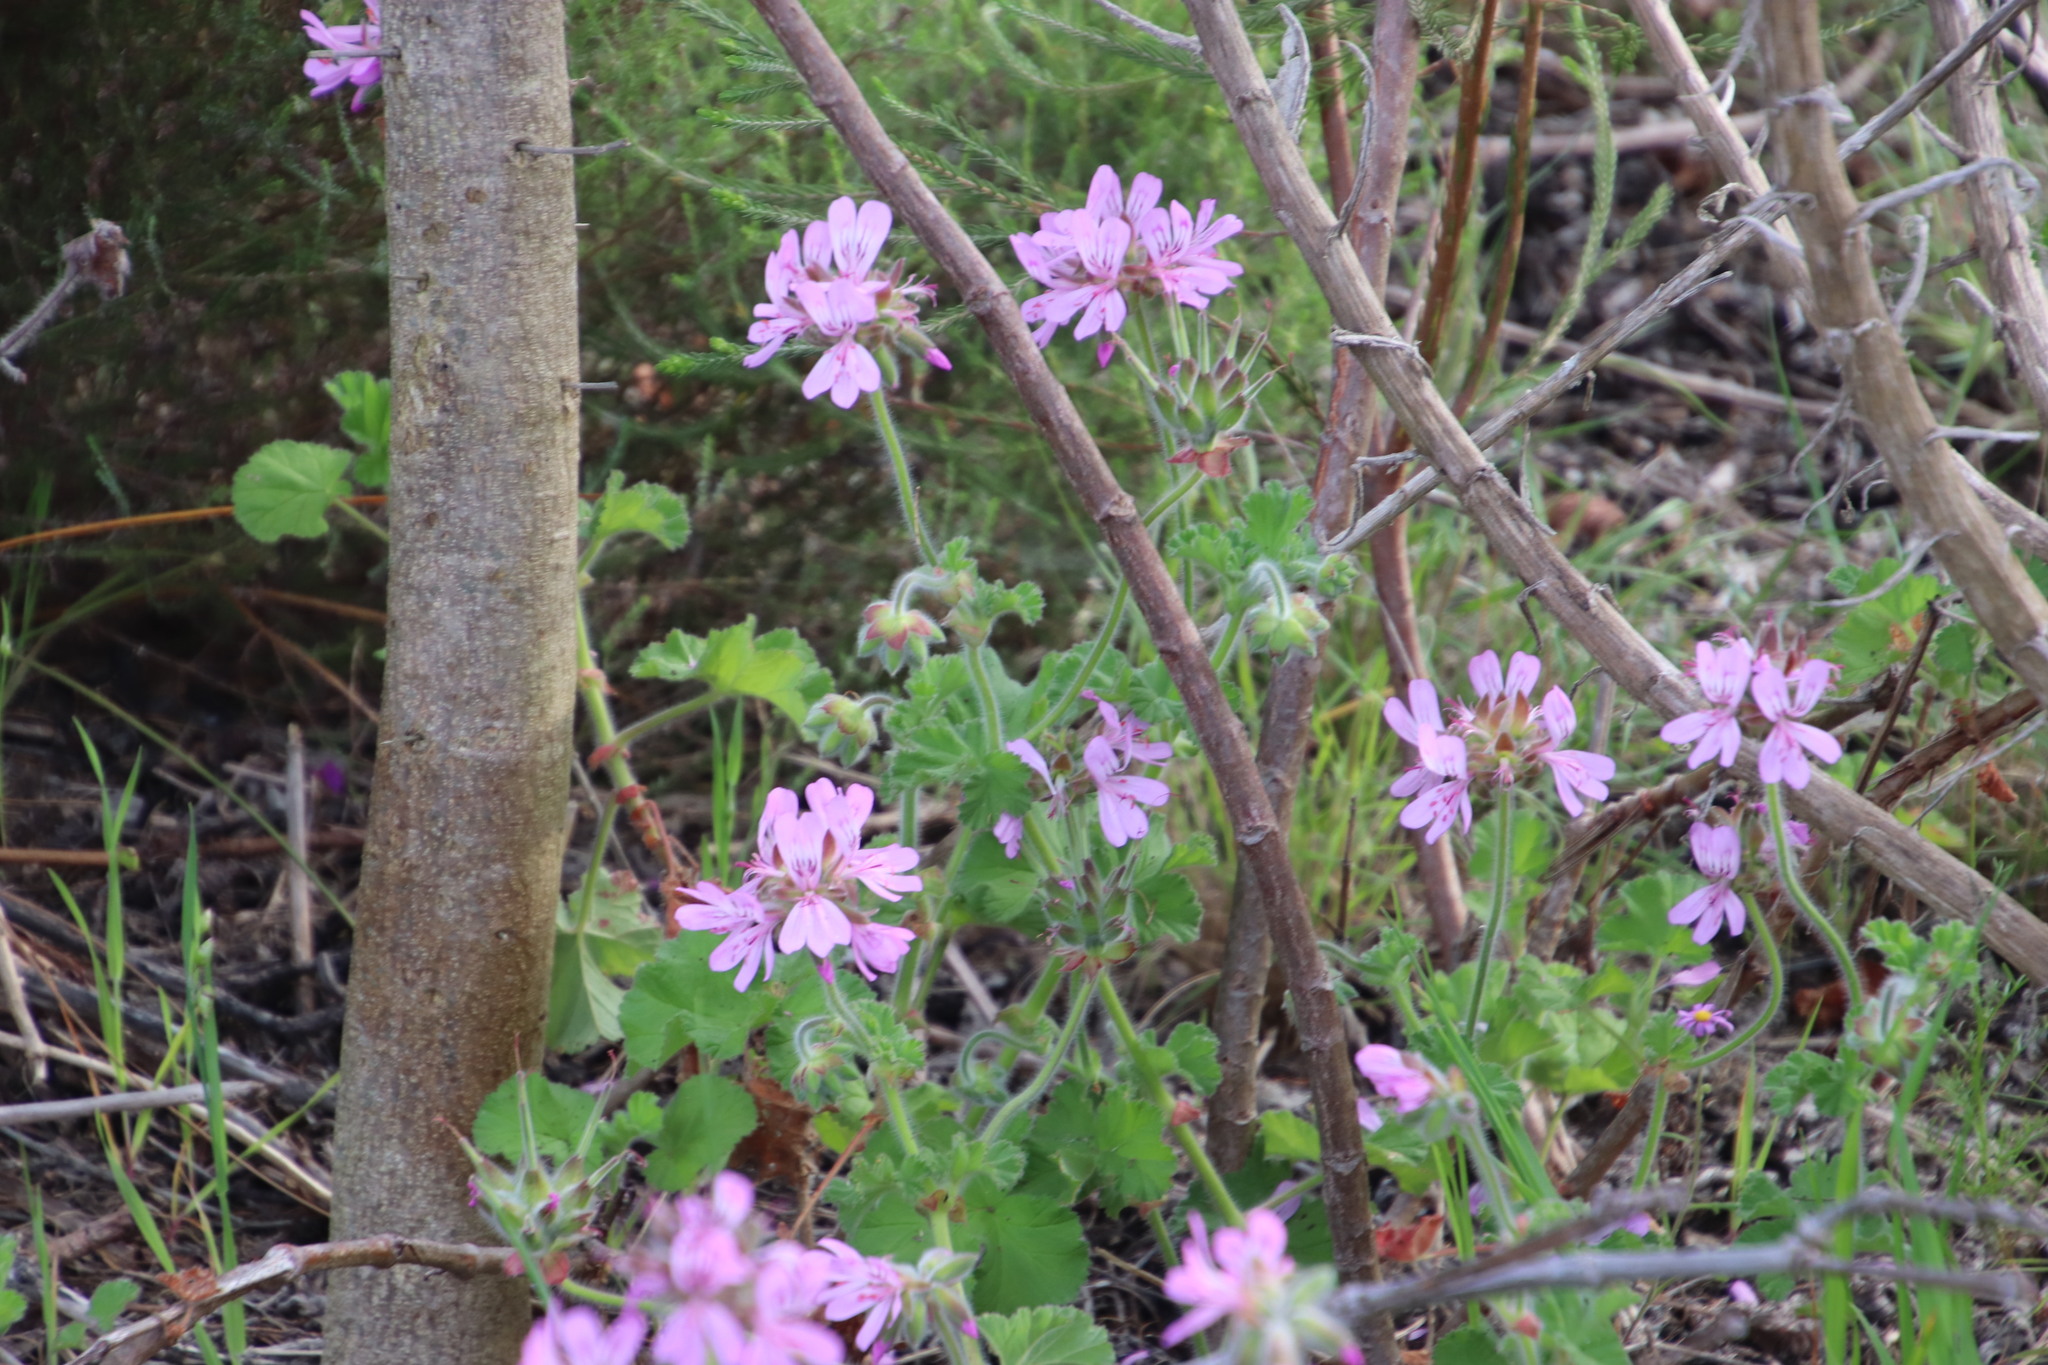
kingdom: Plantae
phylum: Tracheophyta
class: Magnoliopsida
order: Geraniales
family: Geraniaceae
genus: Pelargonium
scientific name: Pelargonium capitatum
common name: Rose scented geranium
